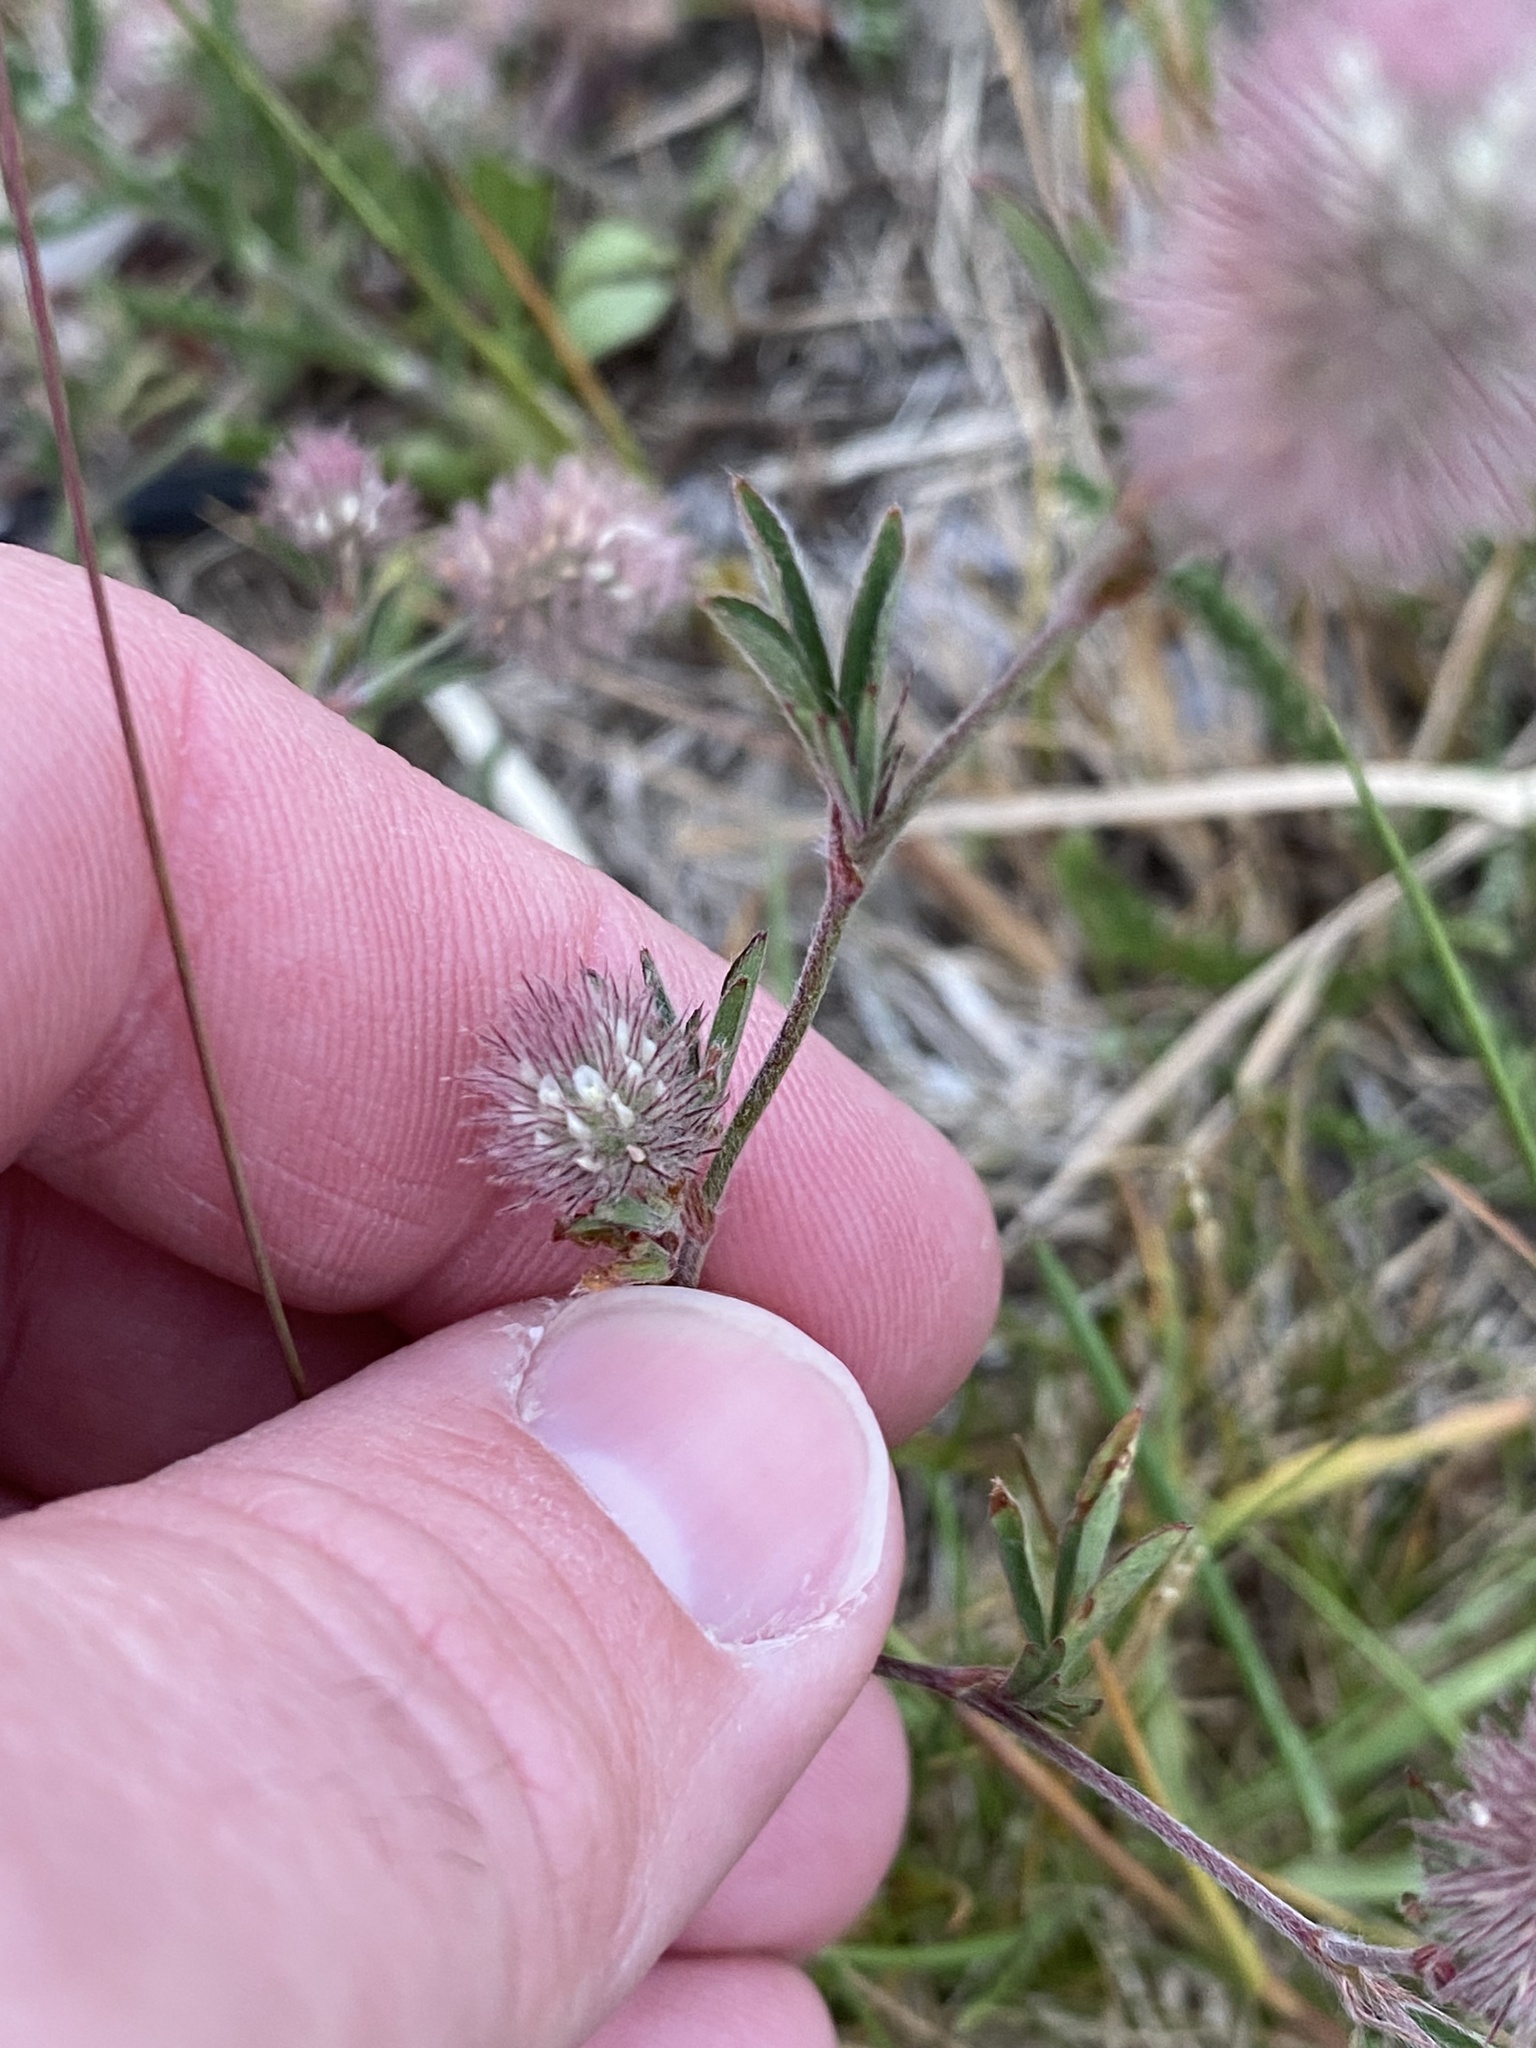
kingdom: Plantae
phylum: Tracheophyta
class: Magnoliopsida
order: Fabales
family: Fabaceae
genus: Trifolium
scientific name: Trifolium arvense
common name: Hare's-foot clover
